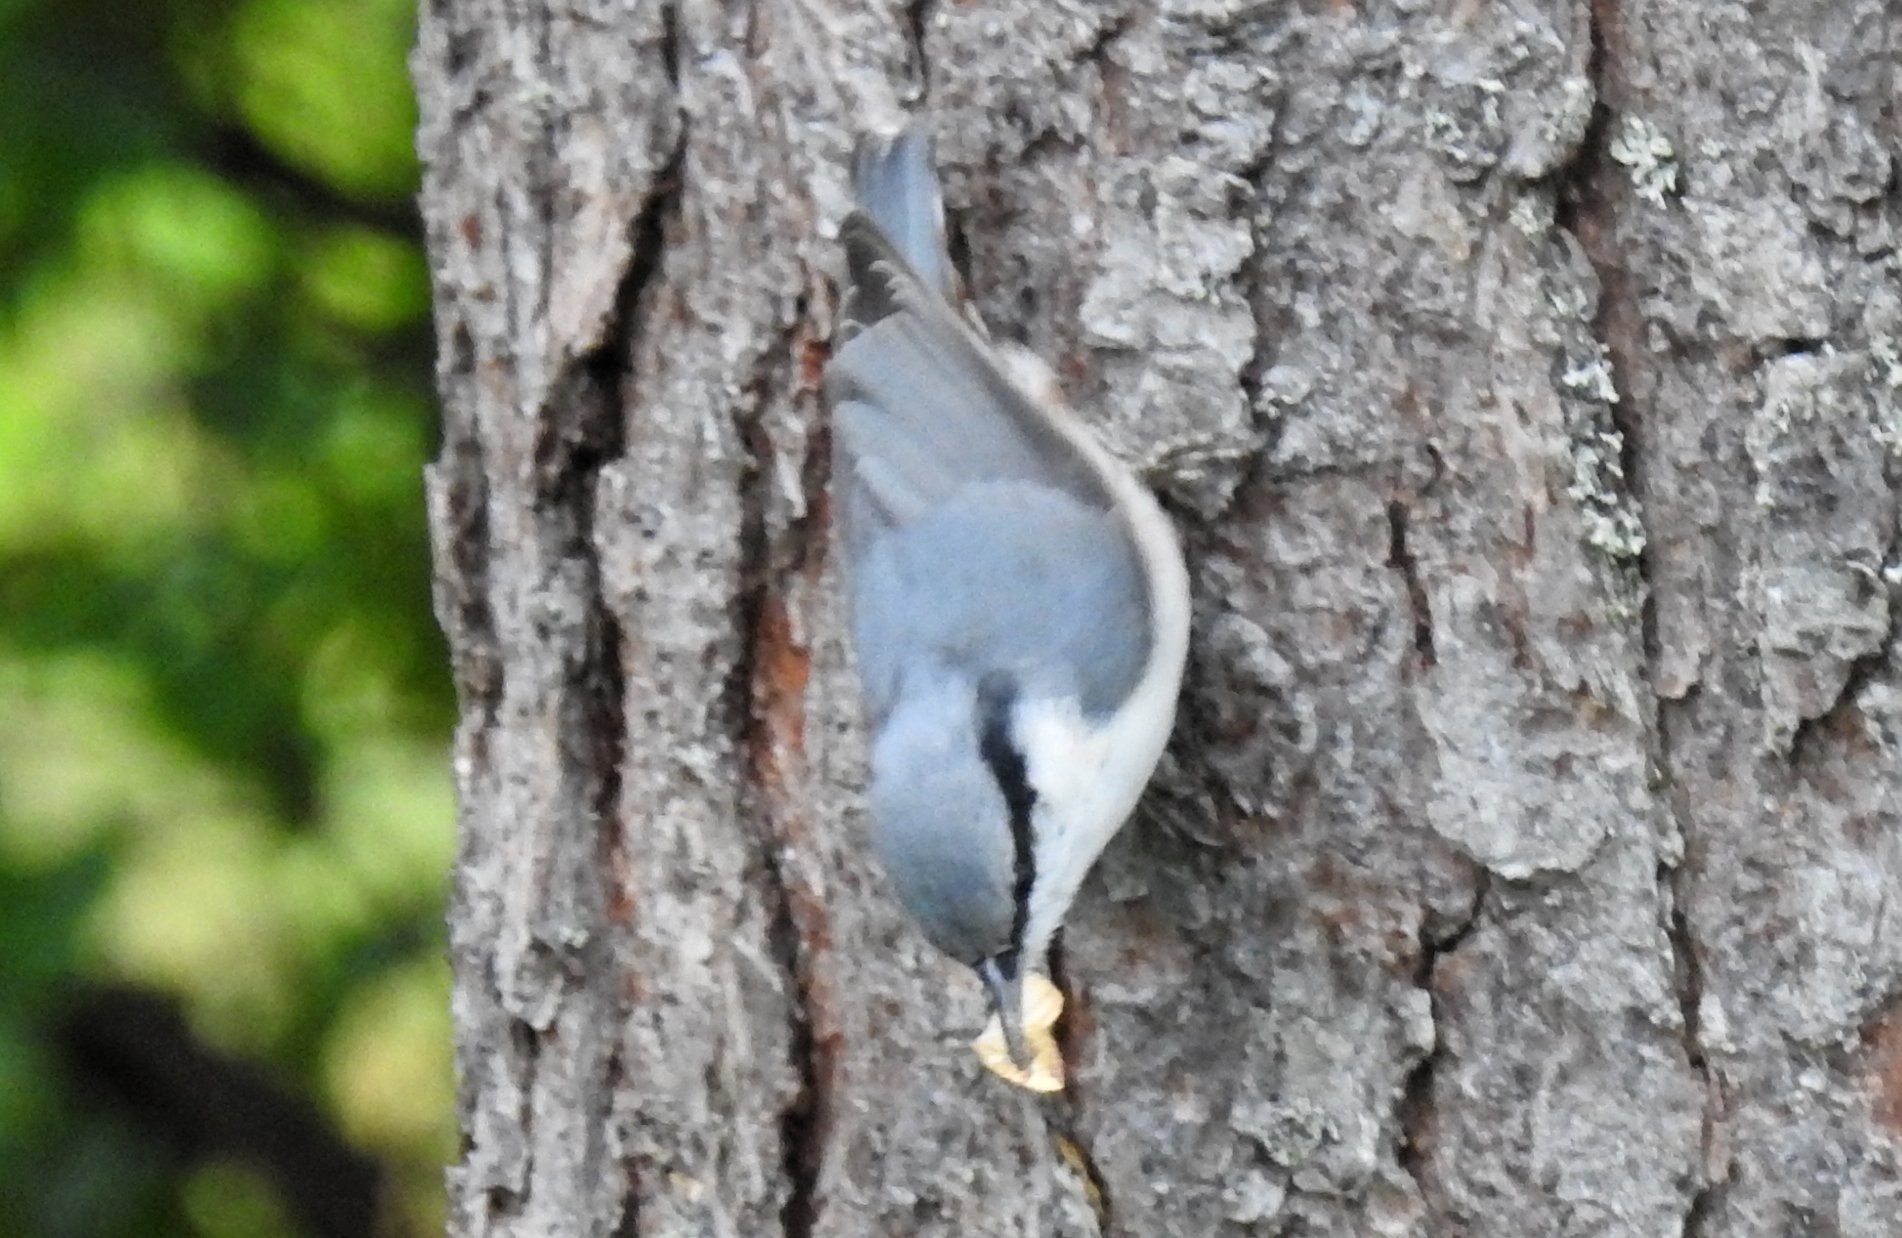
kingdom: Animalia
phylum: Chordata
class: Aves
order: Passeriformes
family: Sittidae
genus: Sitta
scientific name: Sitta europaea
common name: Eurasian nuthatch
